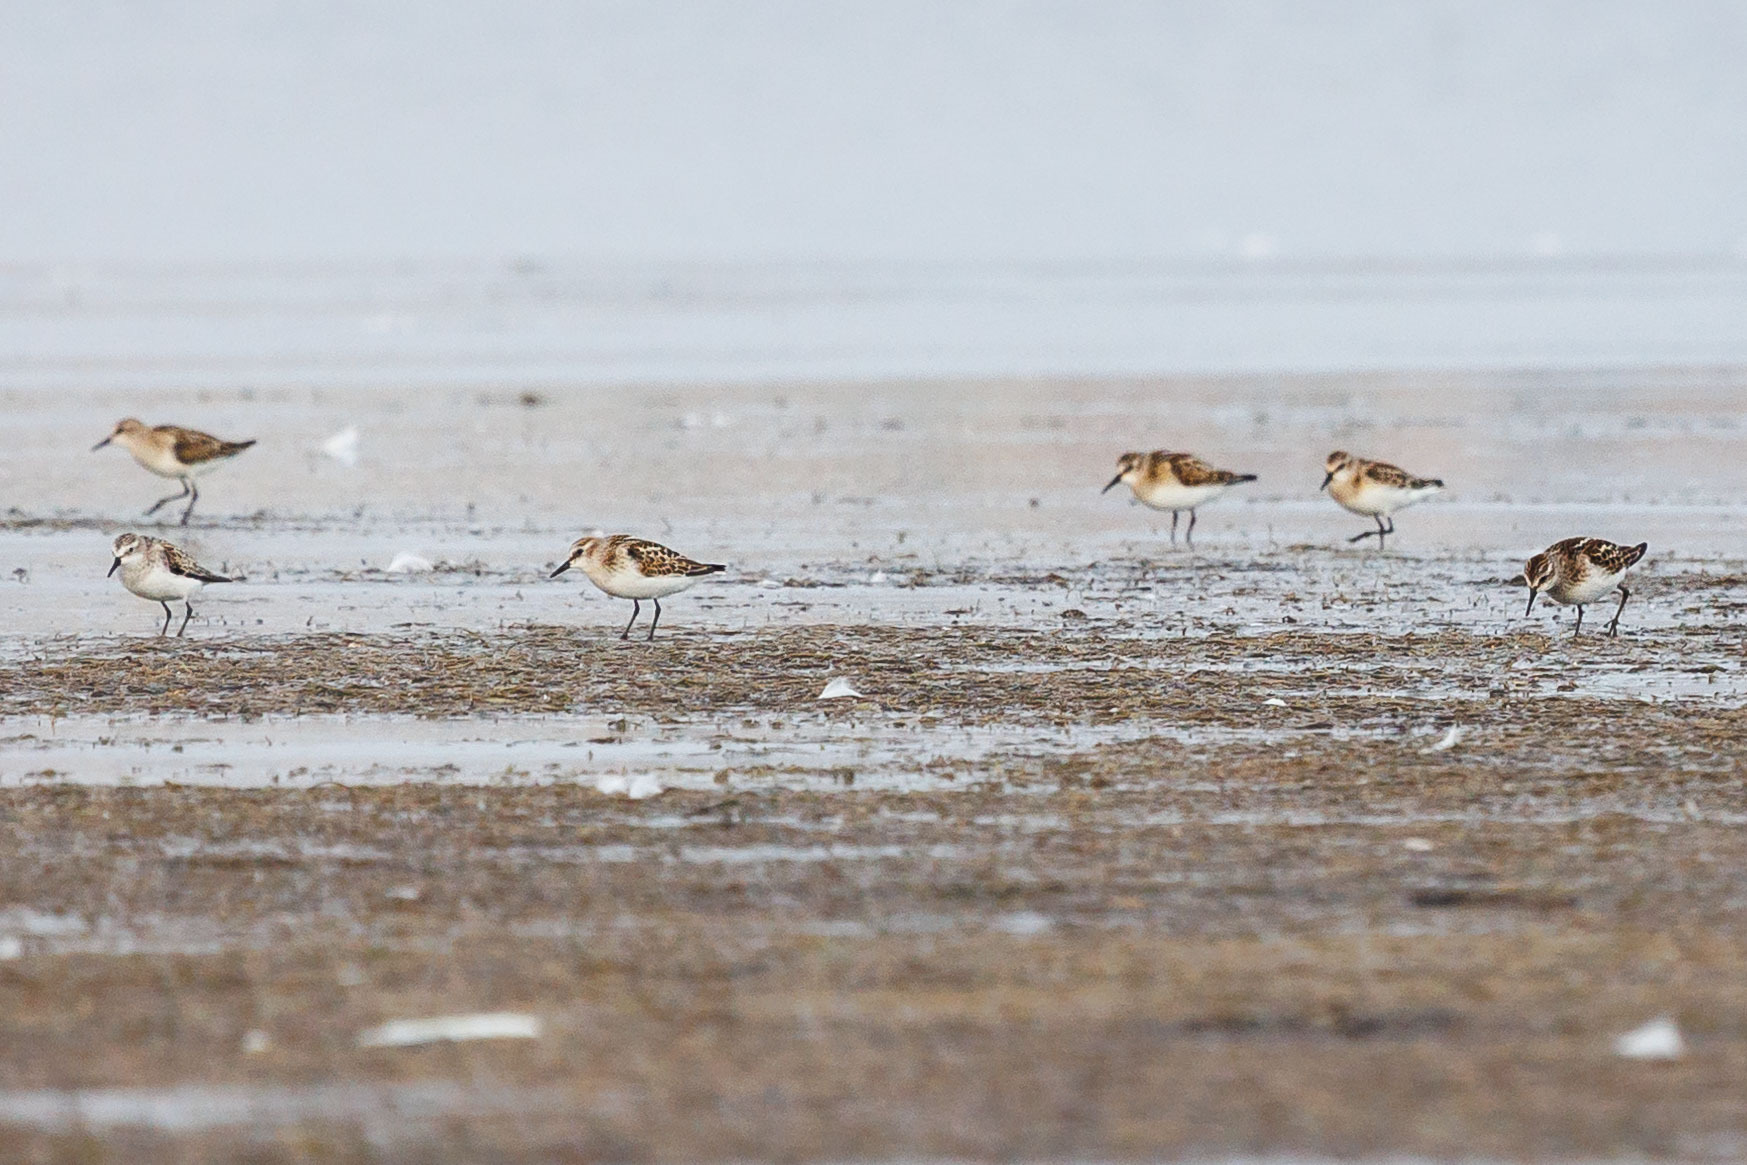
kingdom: Animalia
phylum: Chordata
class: Aves
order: Charadriiformes
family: Scolopacidae
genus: Calidris
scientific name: Calidris minuta
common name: Little stint
